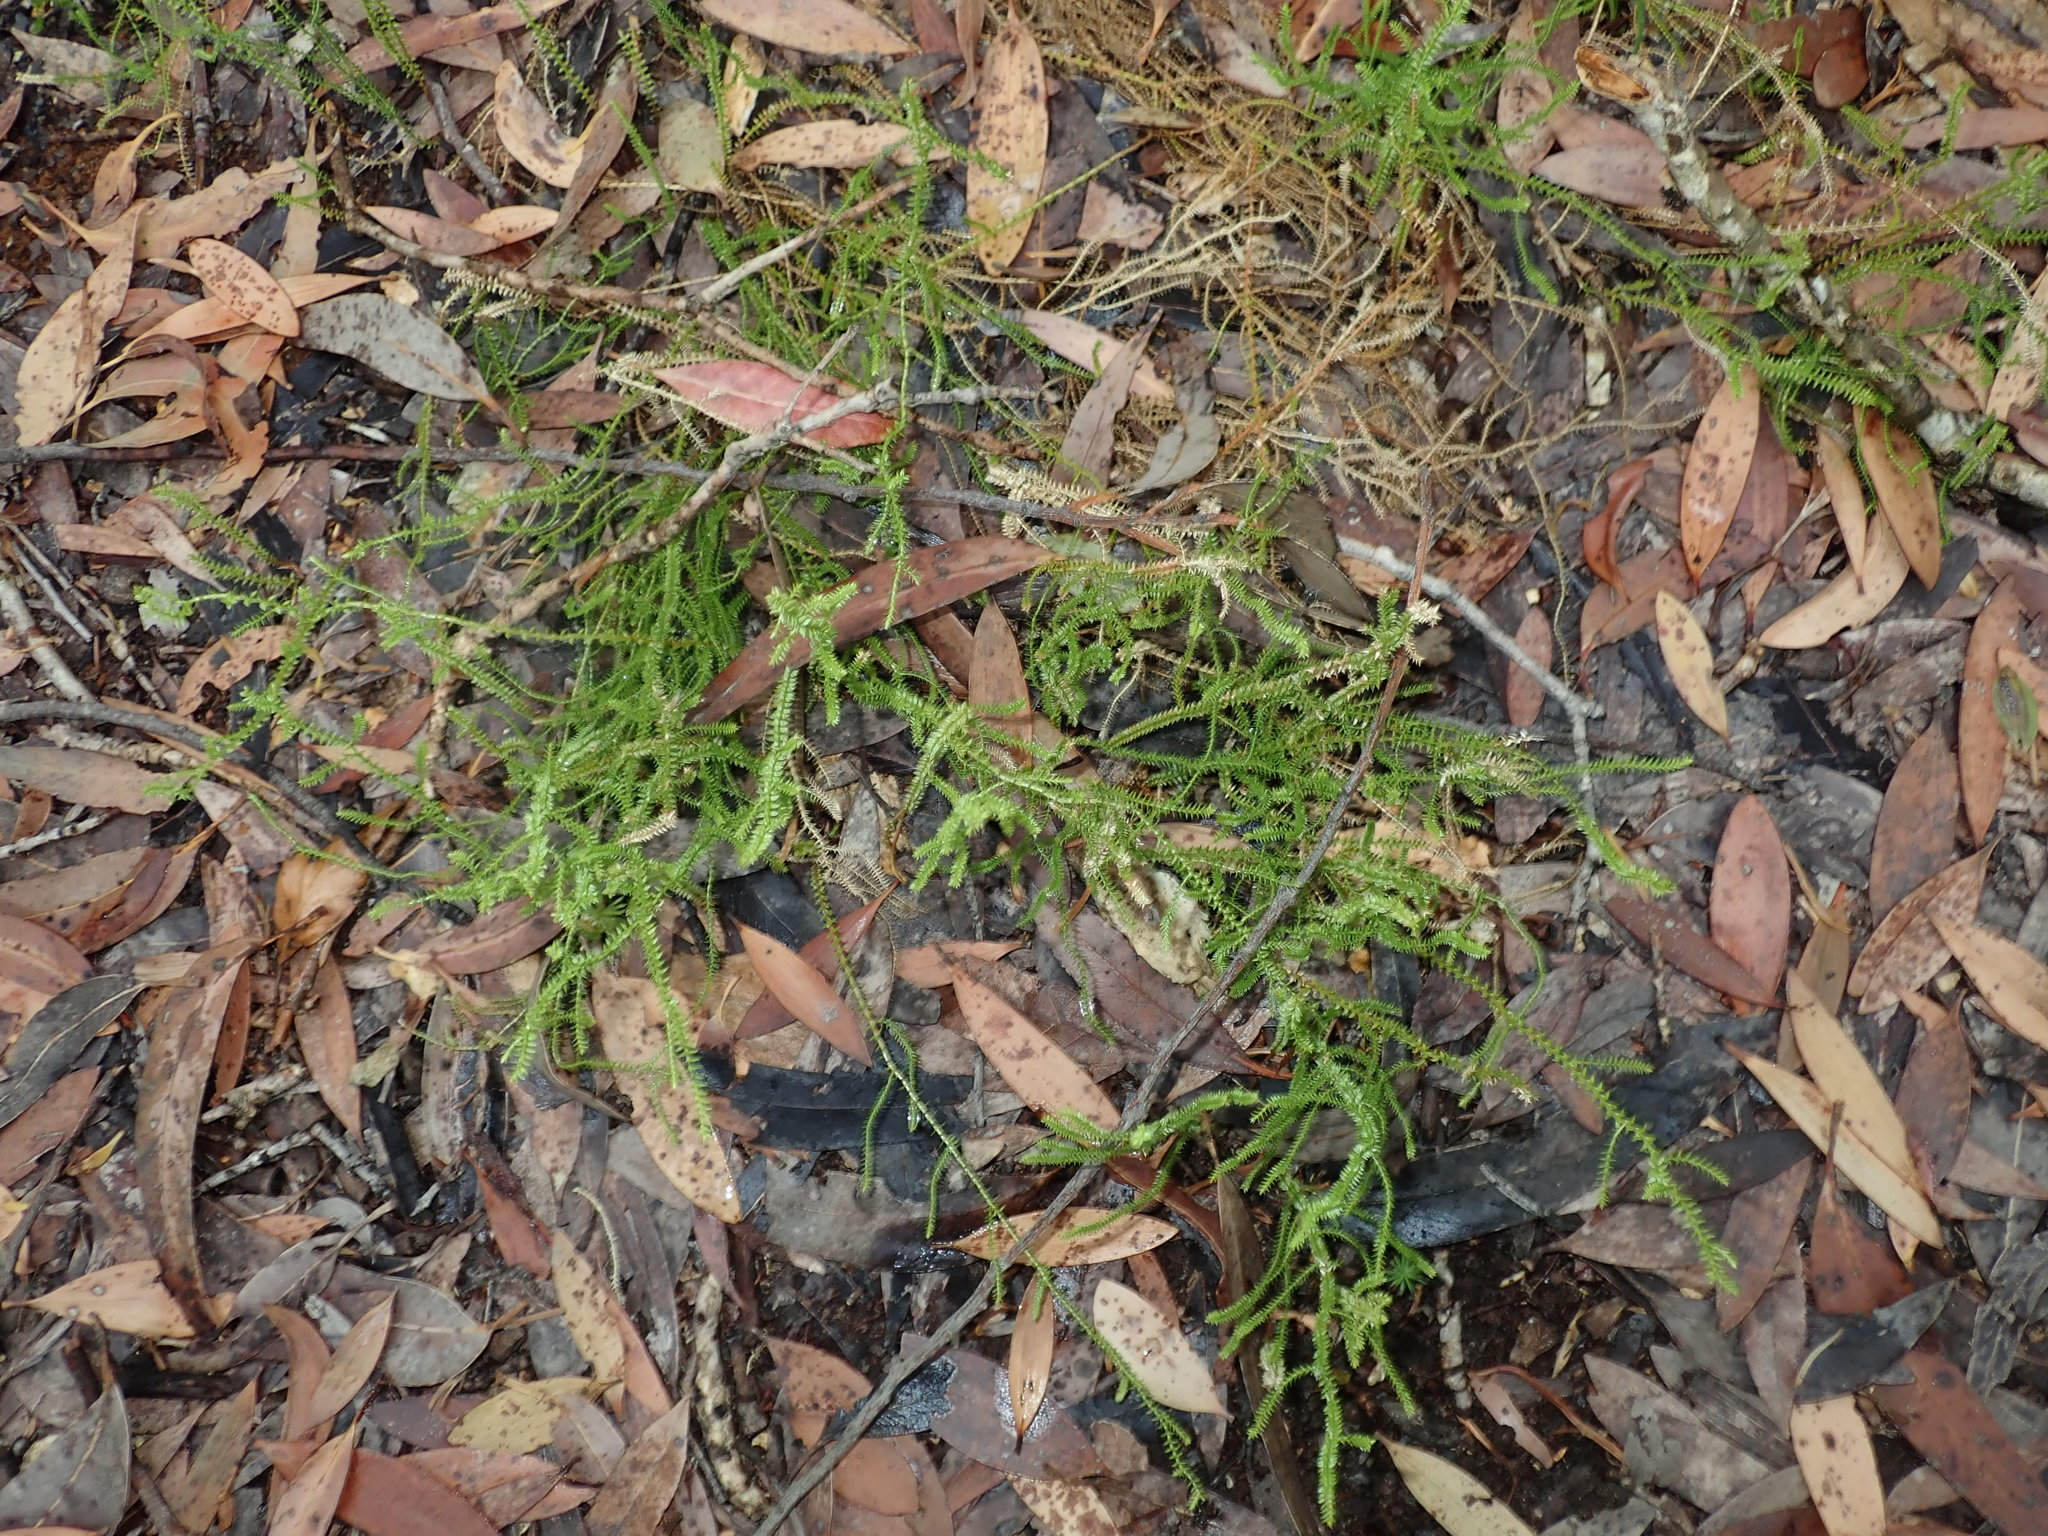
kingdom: Plantae
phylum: Tracheophyta
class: Lycopodiopsida
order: Selaginellales
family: Selaginellaceae
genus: Selaginella
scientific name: Selaginella uliginosa
